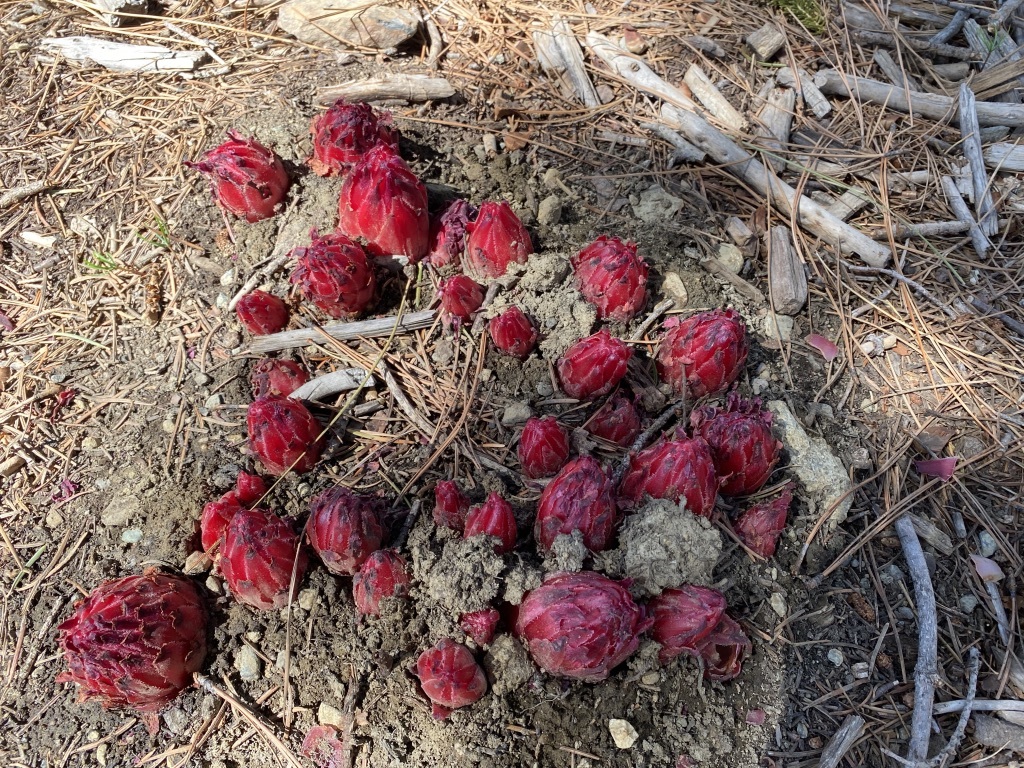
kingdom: Plantae
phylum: Tracheophyta
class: Magnoliopsida
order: Ericales
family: Ericaceae
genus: Sarcodes
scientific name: Sarcodes sanguinea
